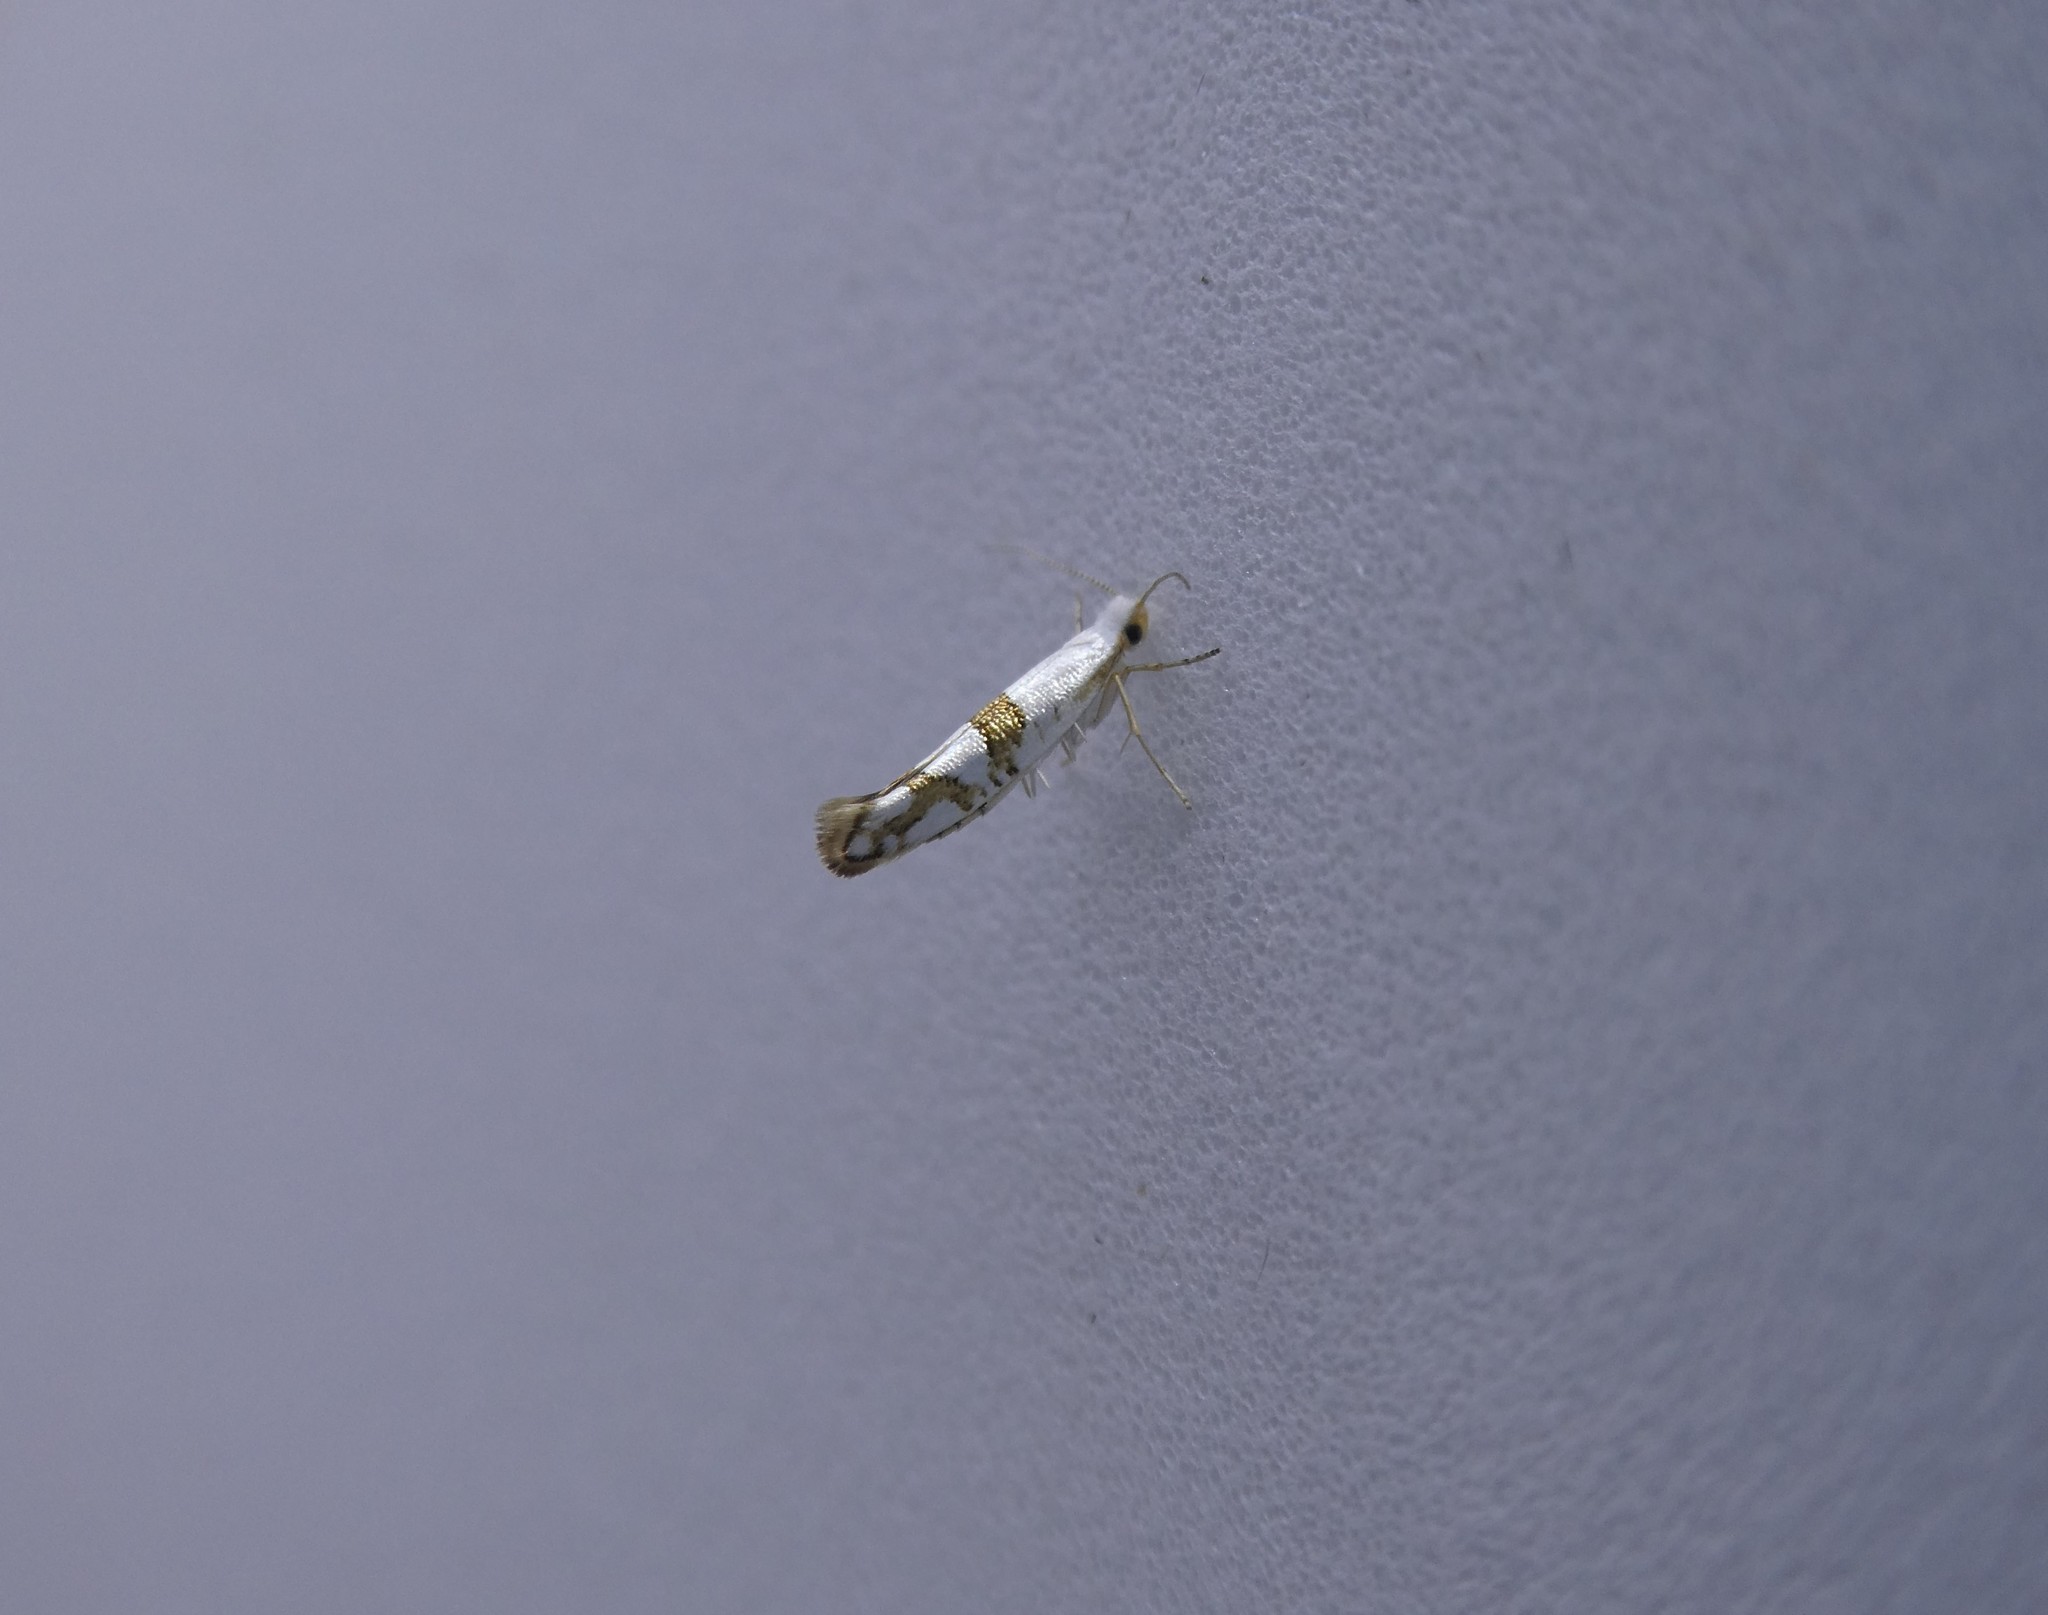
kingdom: Animalia
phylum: Arthropoda
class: Insecta
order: Lepidoptera
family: Argyresthiidae
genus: Argyresthia
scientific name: Argyresthia oreasella
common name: Cherry shoot borer moth
